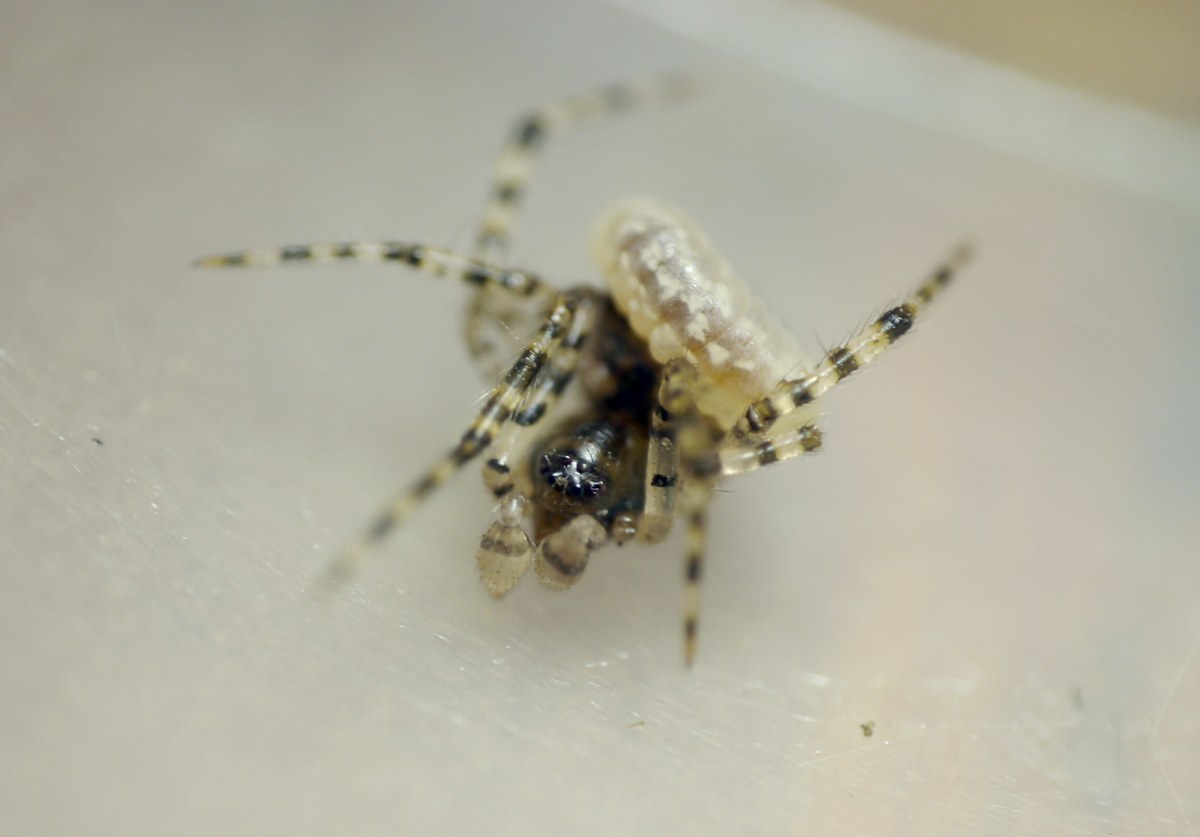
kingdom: Animalia
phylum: Arthropoda
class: Insecta
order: Hymenoptera
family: Ichneumonidae
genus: Zatypota
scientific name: Zatypota bohemani
